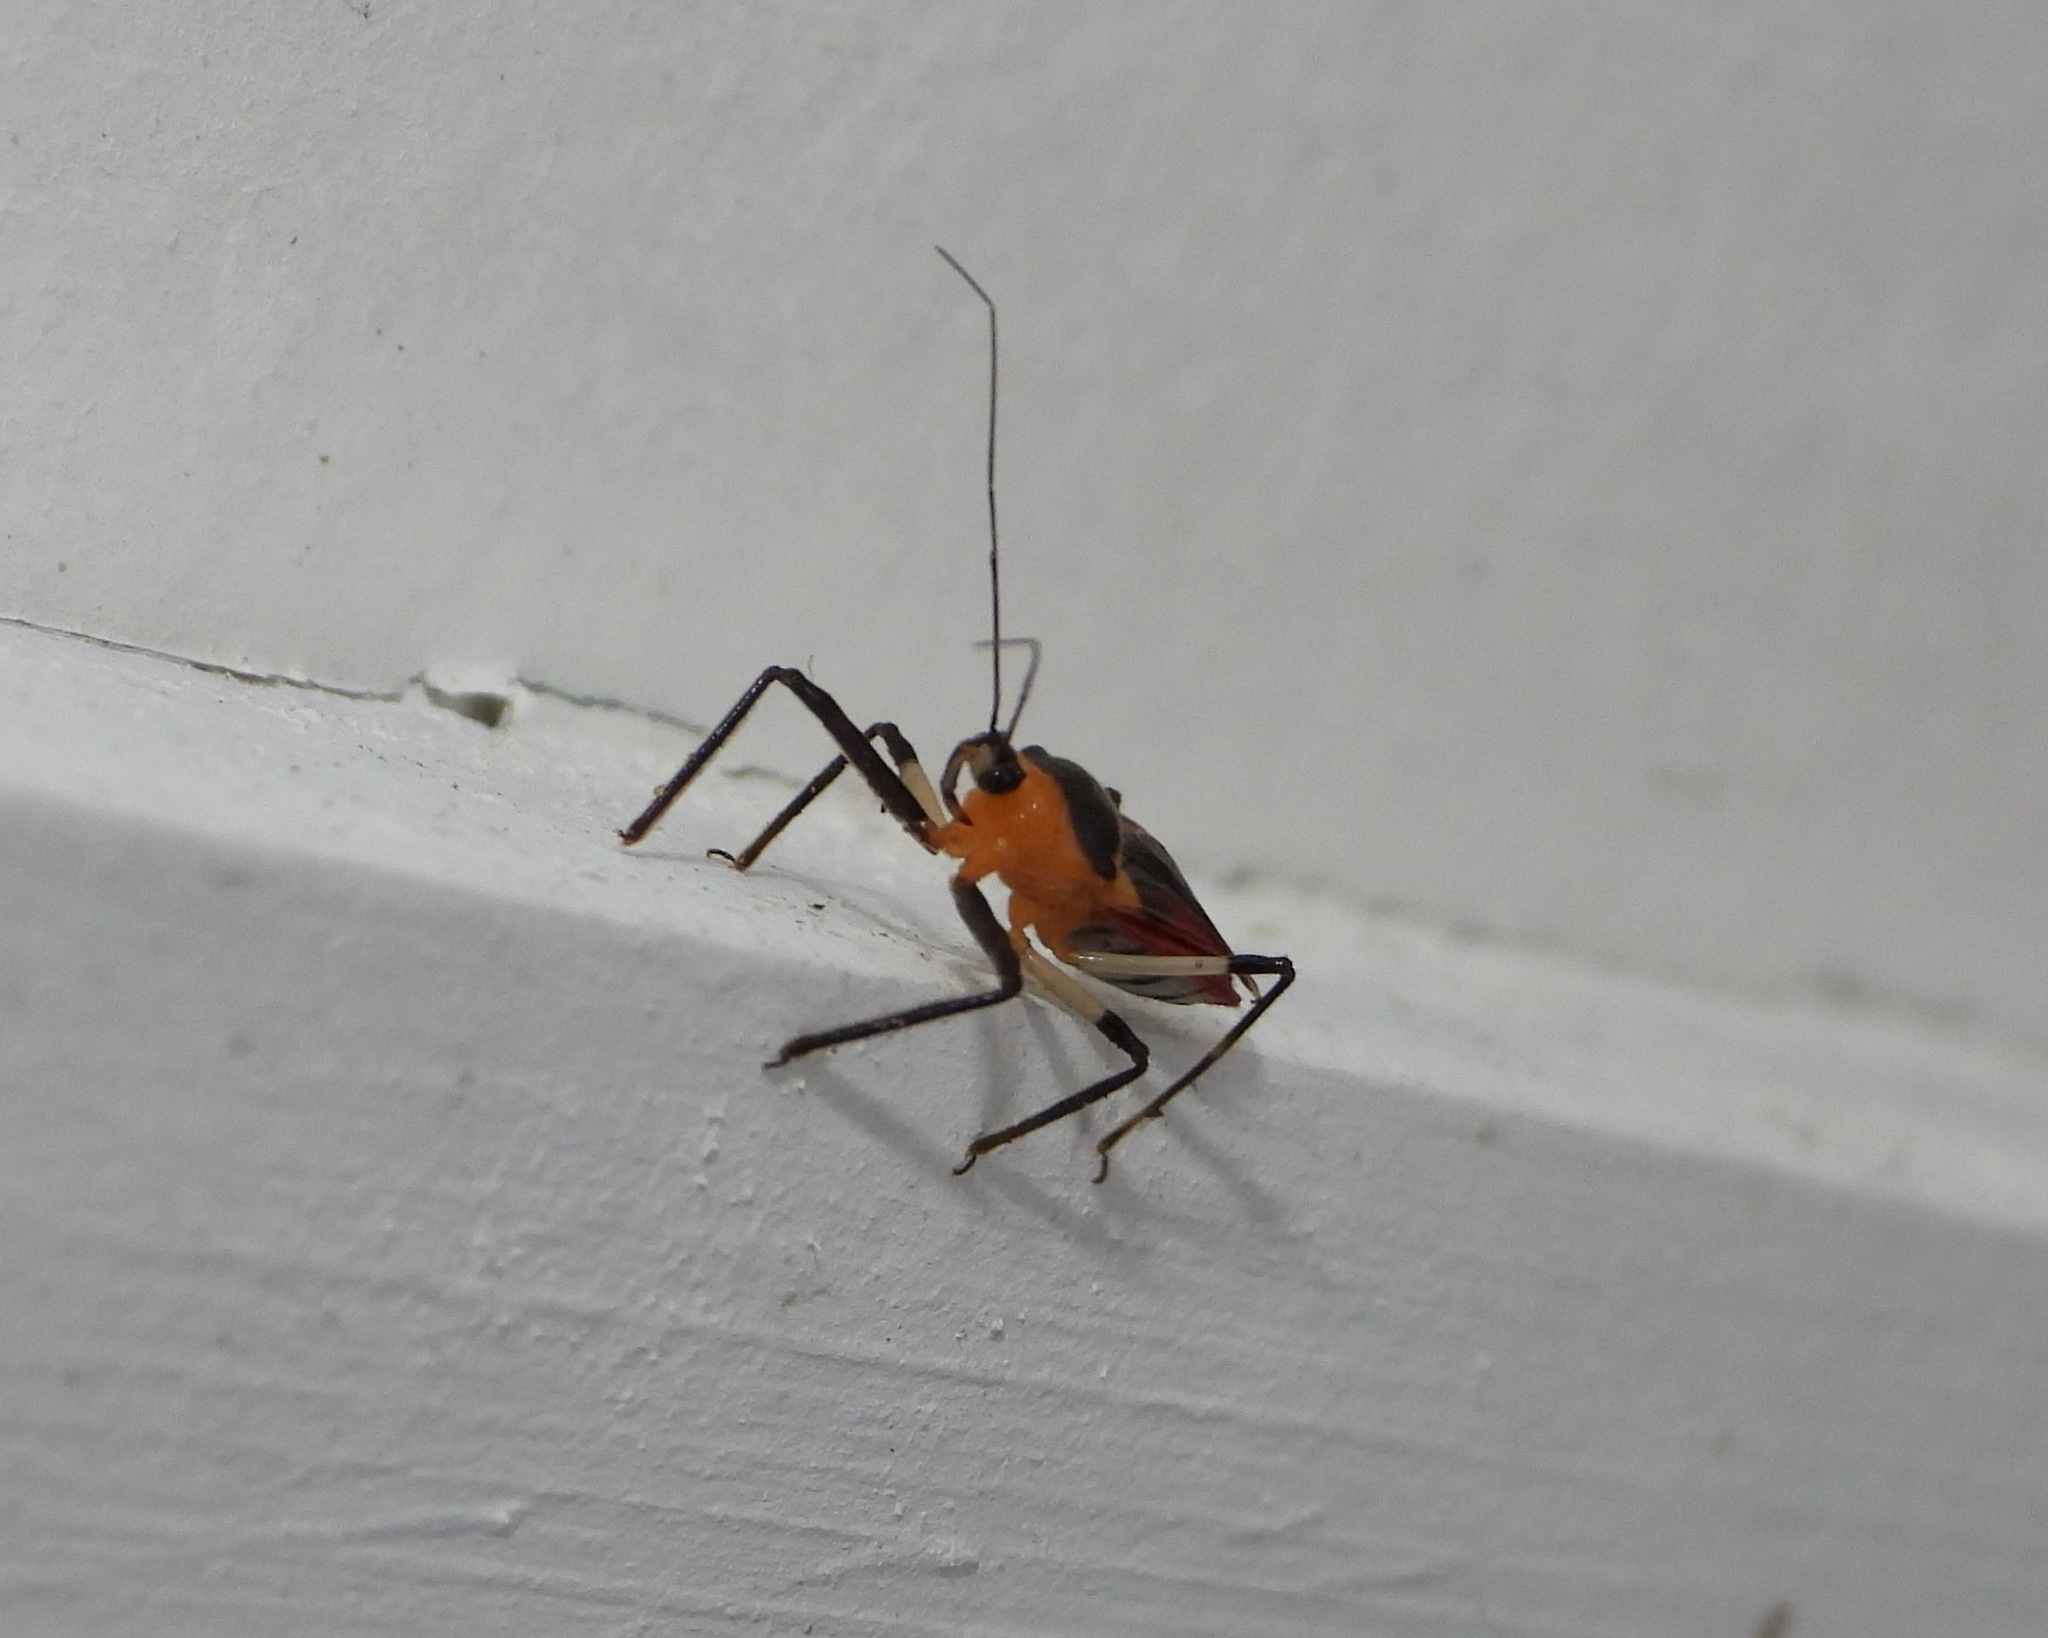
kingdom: Animalia
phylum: Arthropoda
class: Insecta
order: Hemiptera
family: Reduviidae
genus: Castolus
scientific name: Castolus tricolor
